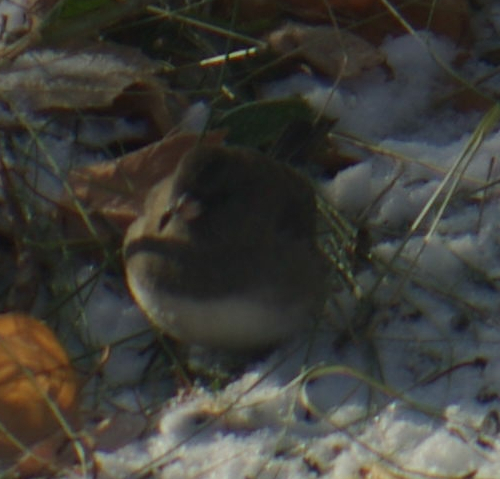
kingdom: Animalia
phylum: Chordata
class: Aves
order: Passeriformes
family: Passerellidae
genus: Junco
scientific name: Junco hyemalis
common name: Dark-eyed junco
